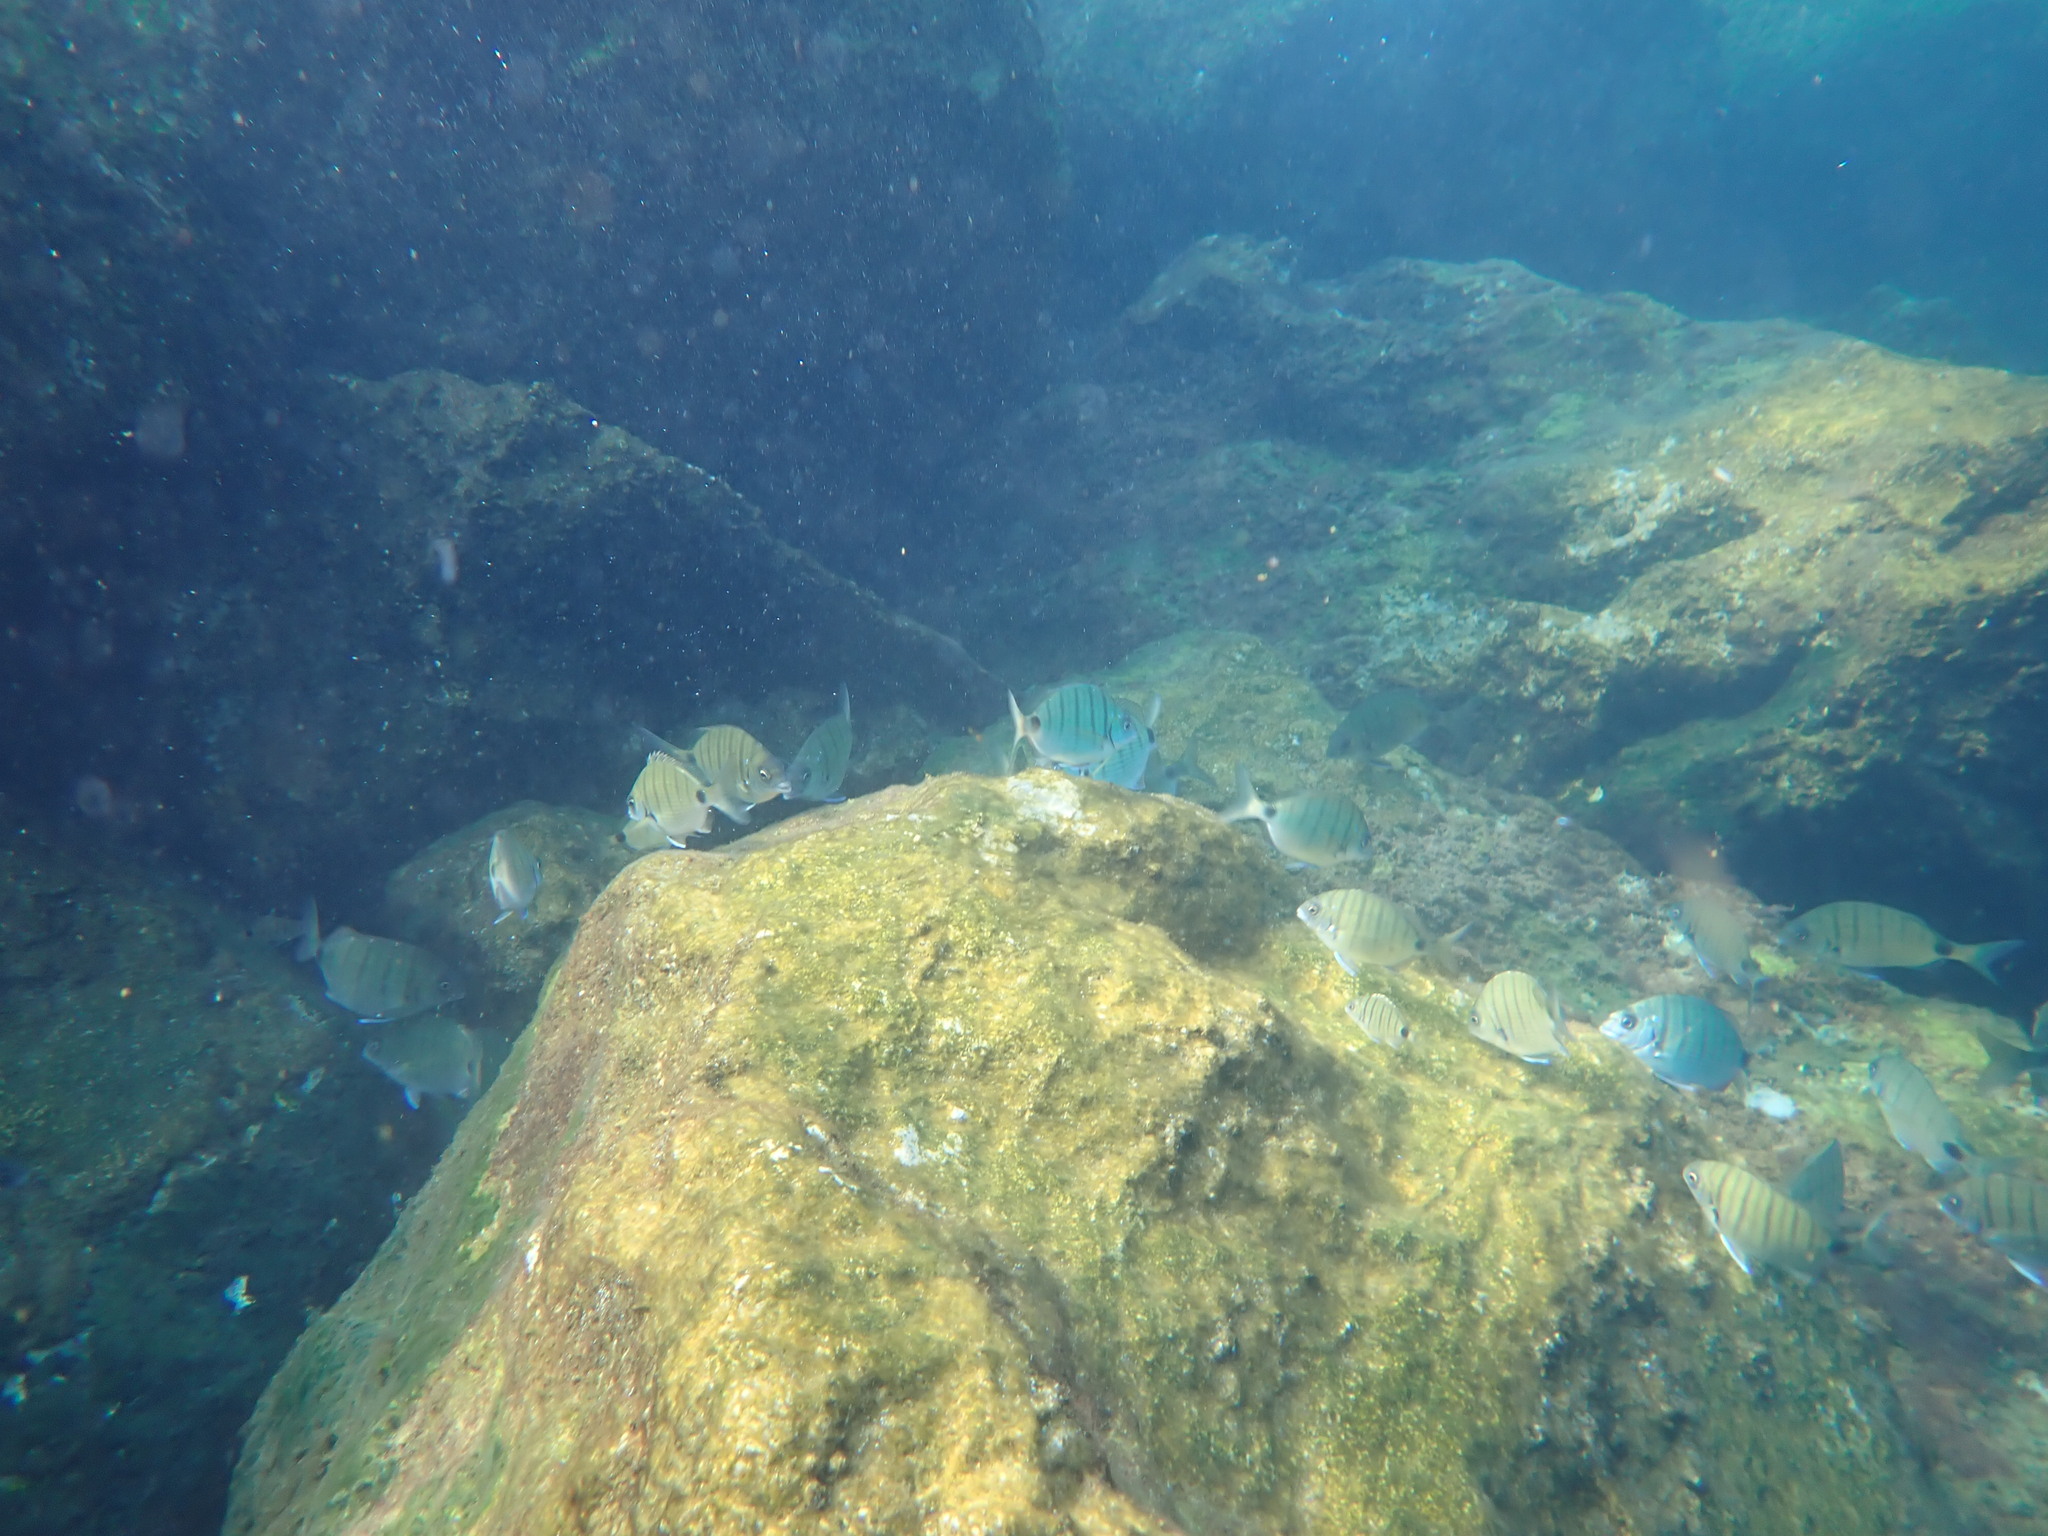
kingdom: Animalia
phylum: Chordata
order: Perciformes
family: Sparidae
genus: Diplodus
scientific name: Diplodus cadenati
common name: Moroccan white seabream
